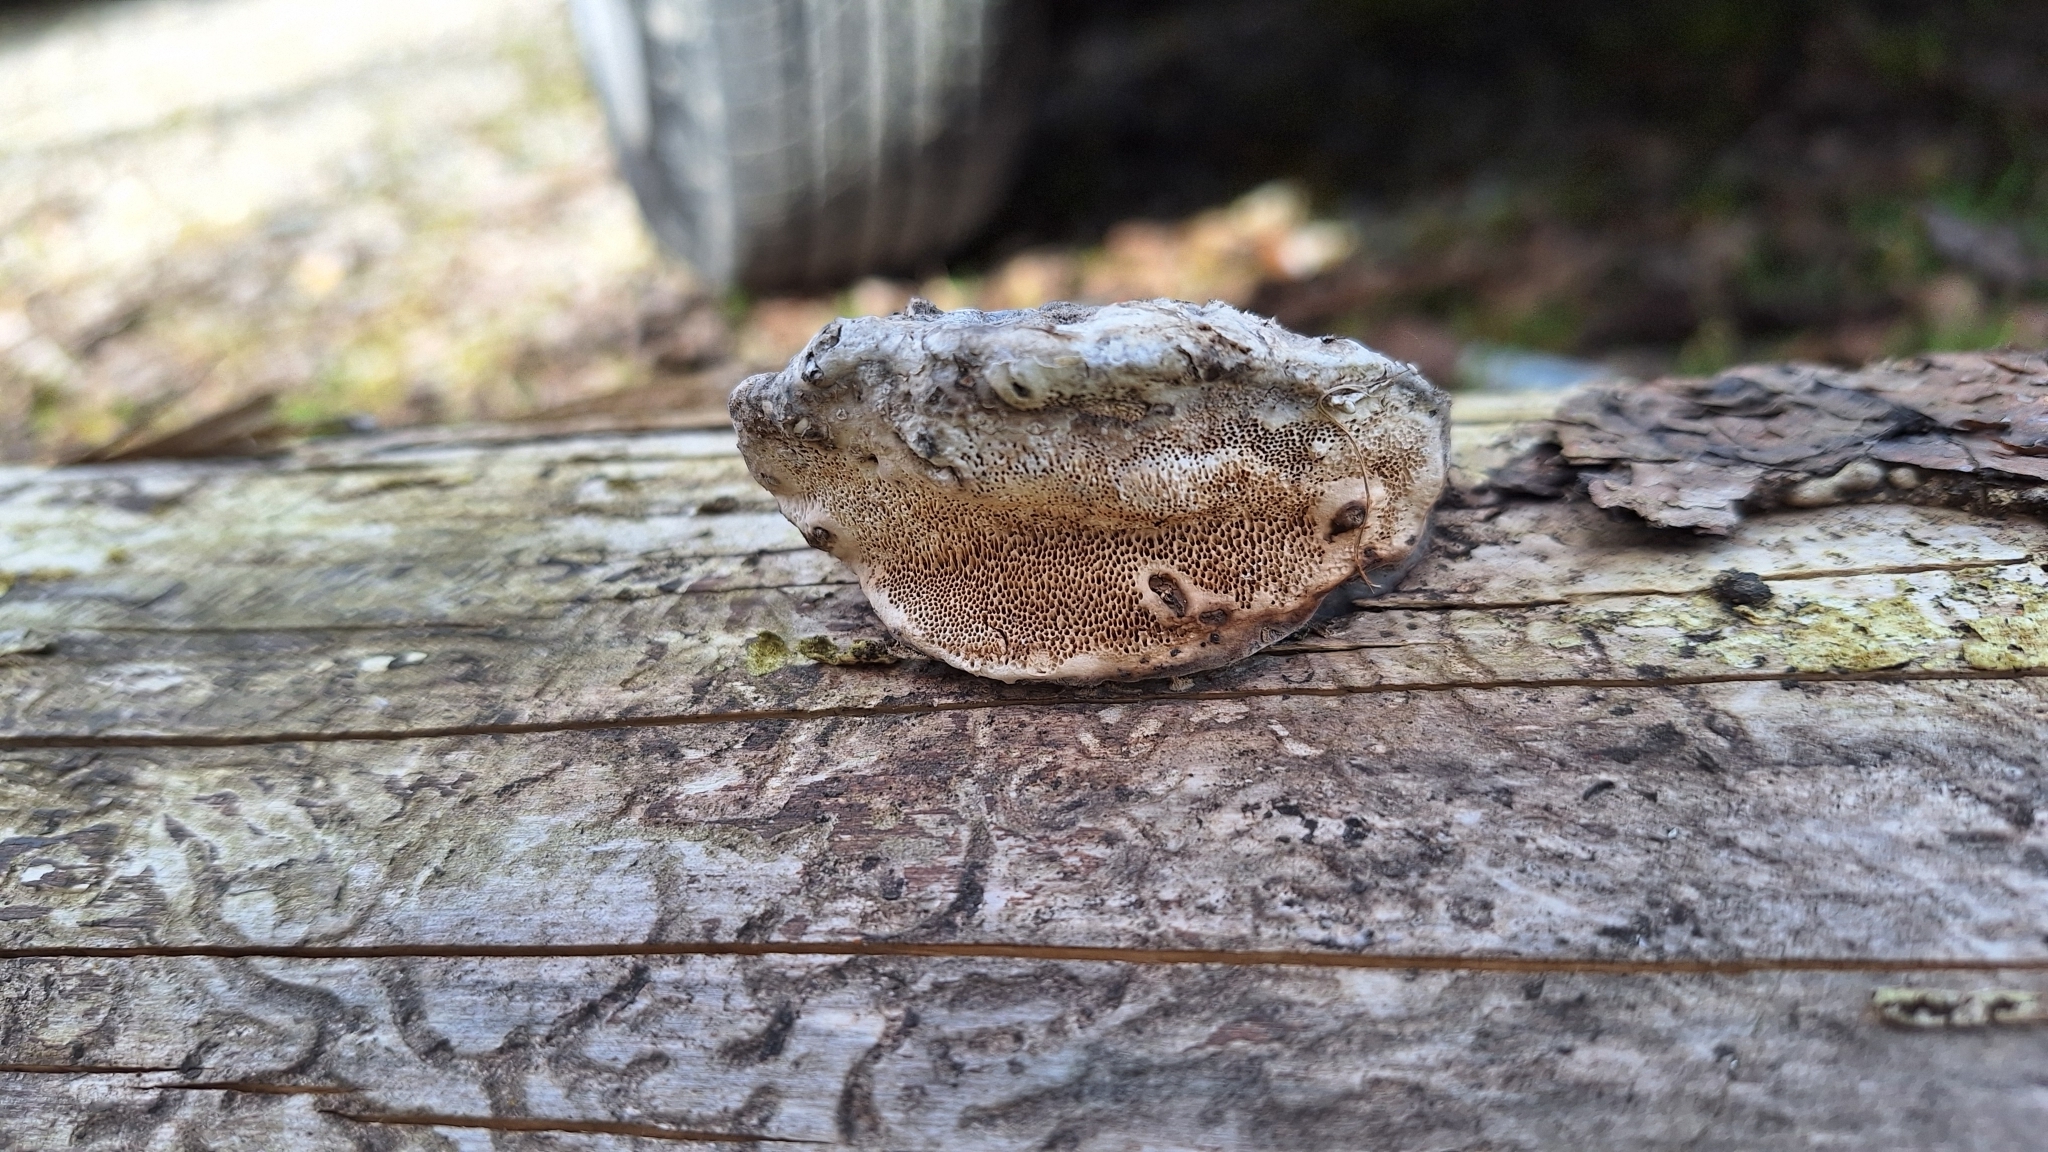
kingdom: Fungi
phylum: Basidiomycota
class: Agaricomycetes
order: Polyporales
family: Fomitopsidaceae
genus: Fomitopsis
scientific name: Fomitopsis pinicola
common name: Red-belted bracket
